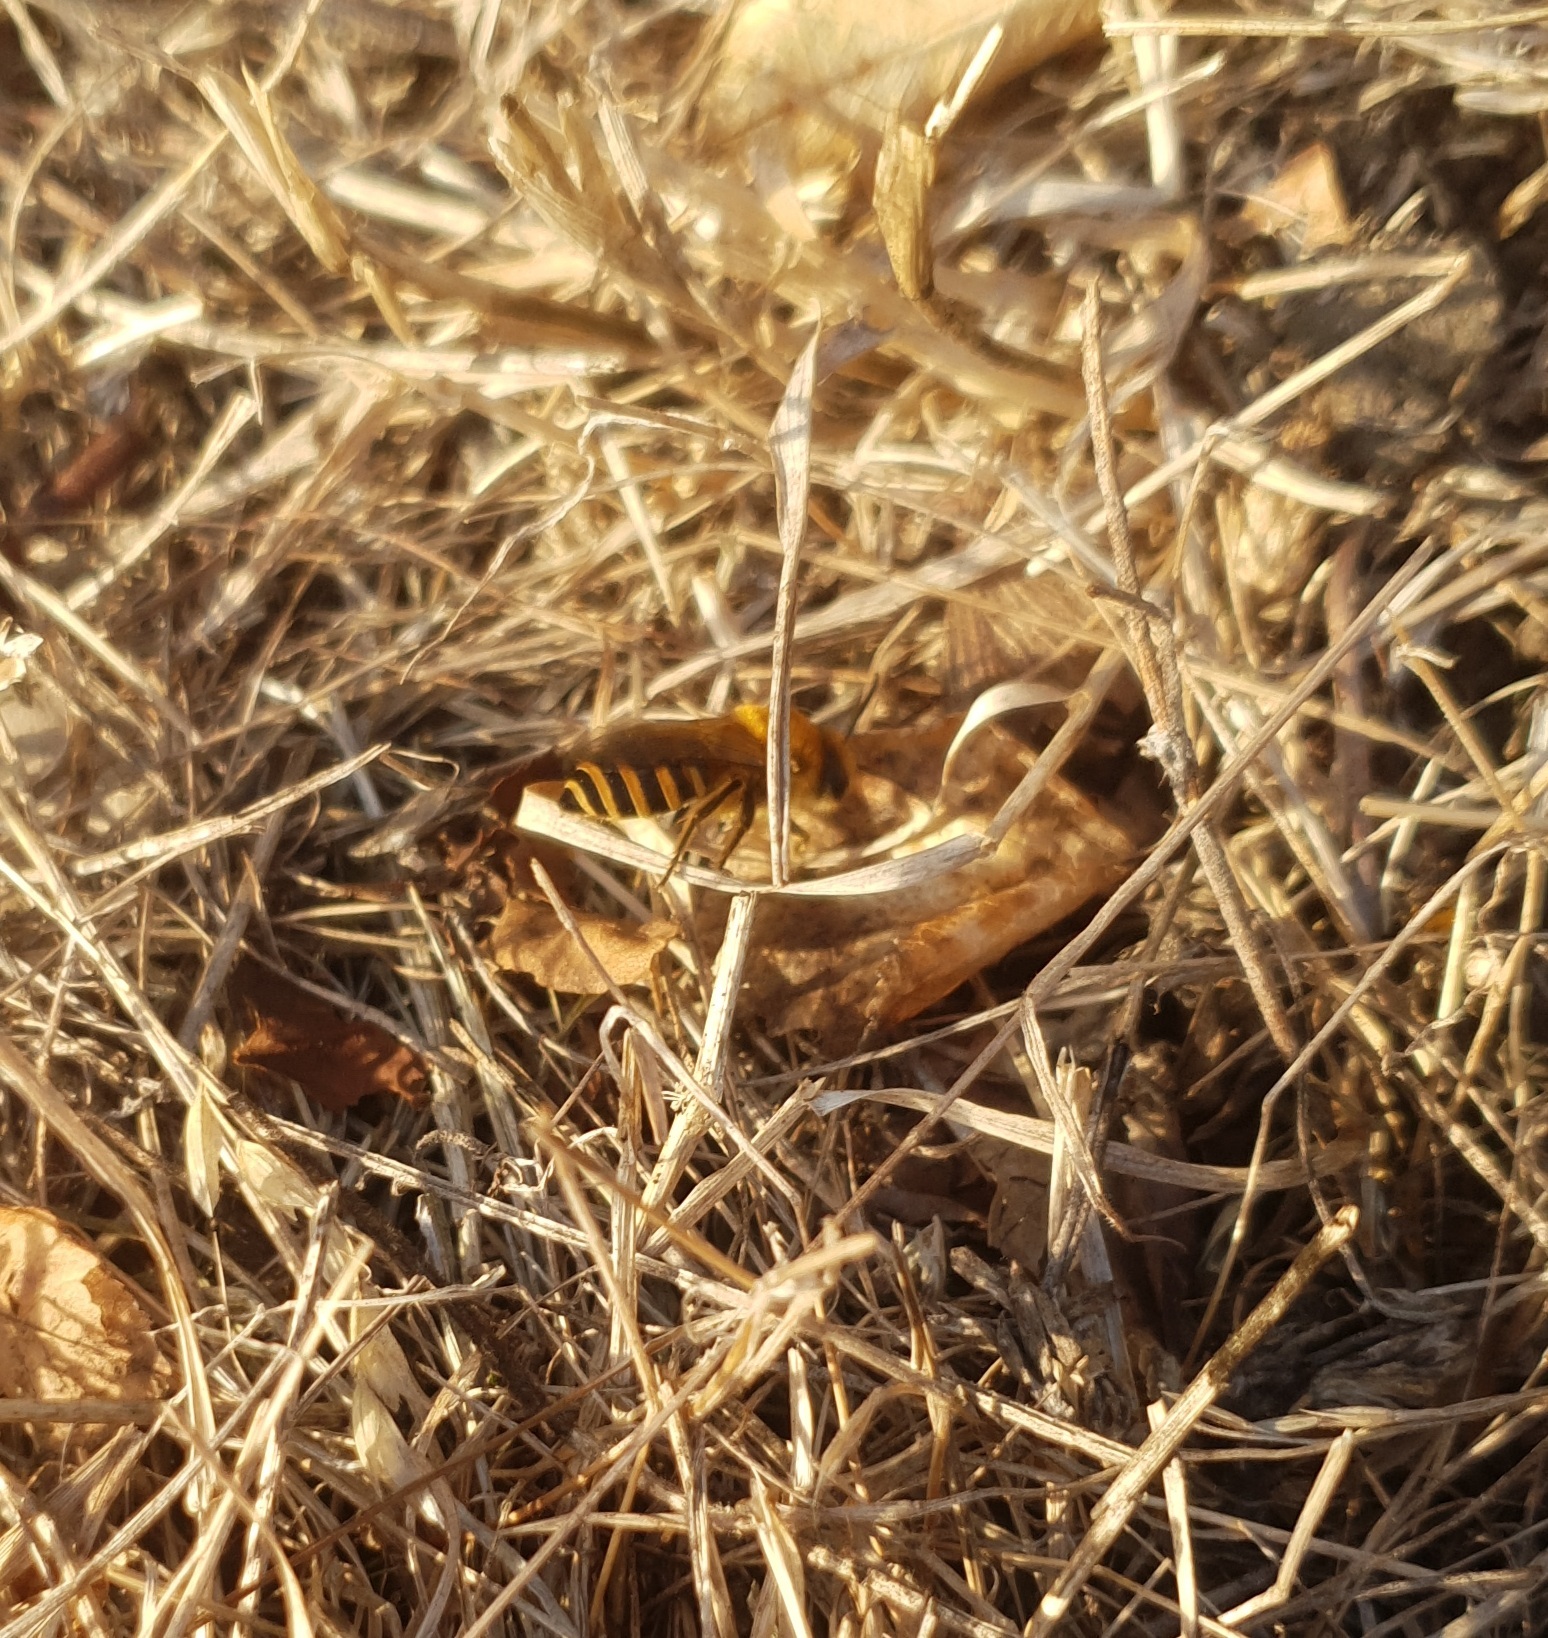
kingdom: Animalia
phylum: Arthropoda
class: Insecta
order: Hymenoptera
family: Colletidae
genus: Colletes
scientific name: Colletes hederae
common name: Ivy bee
